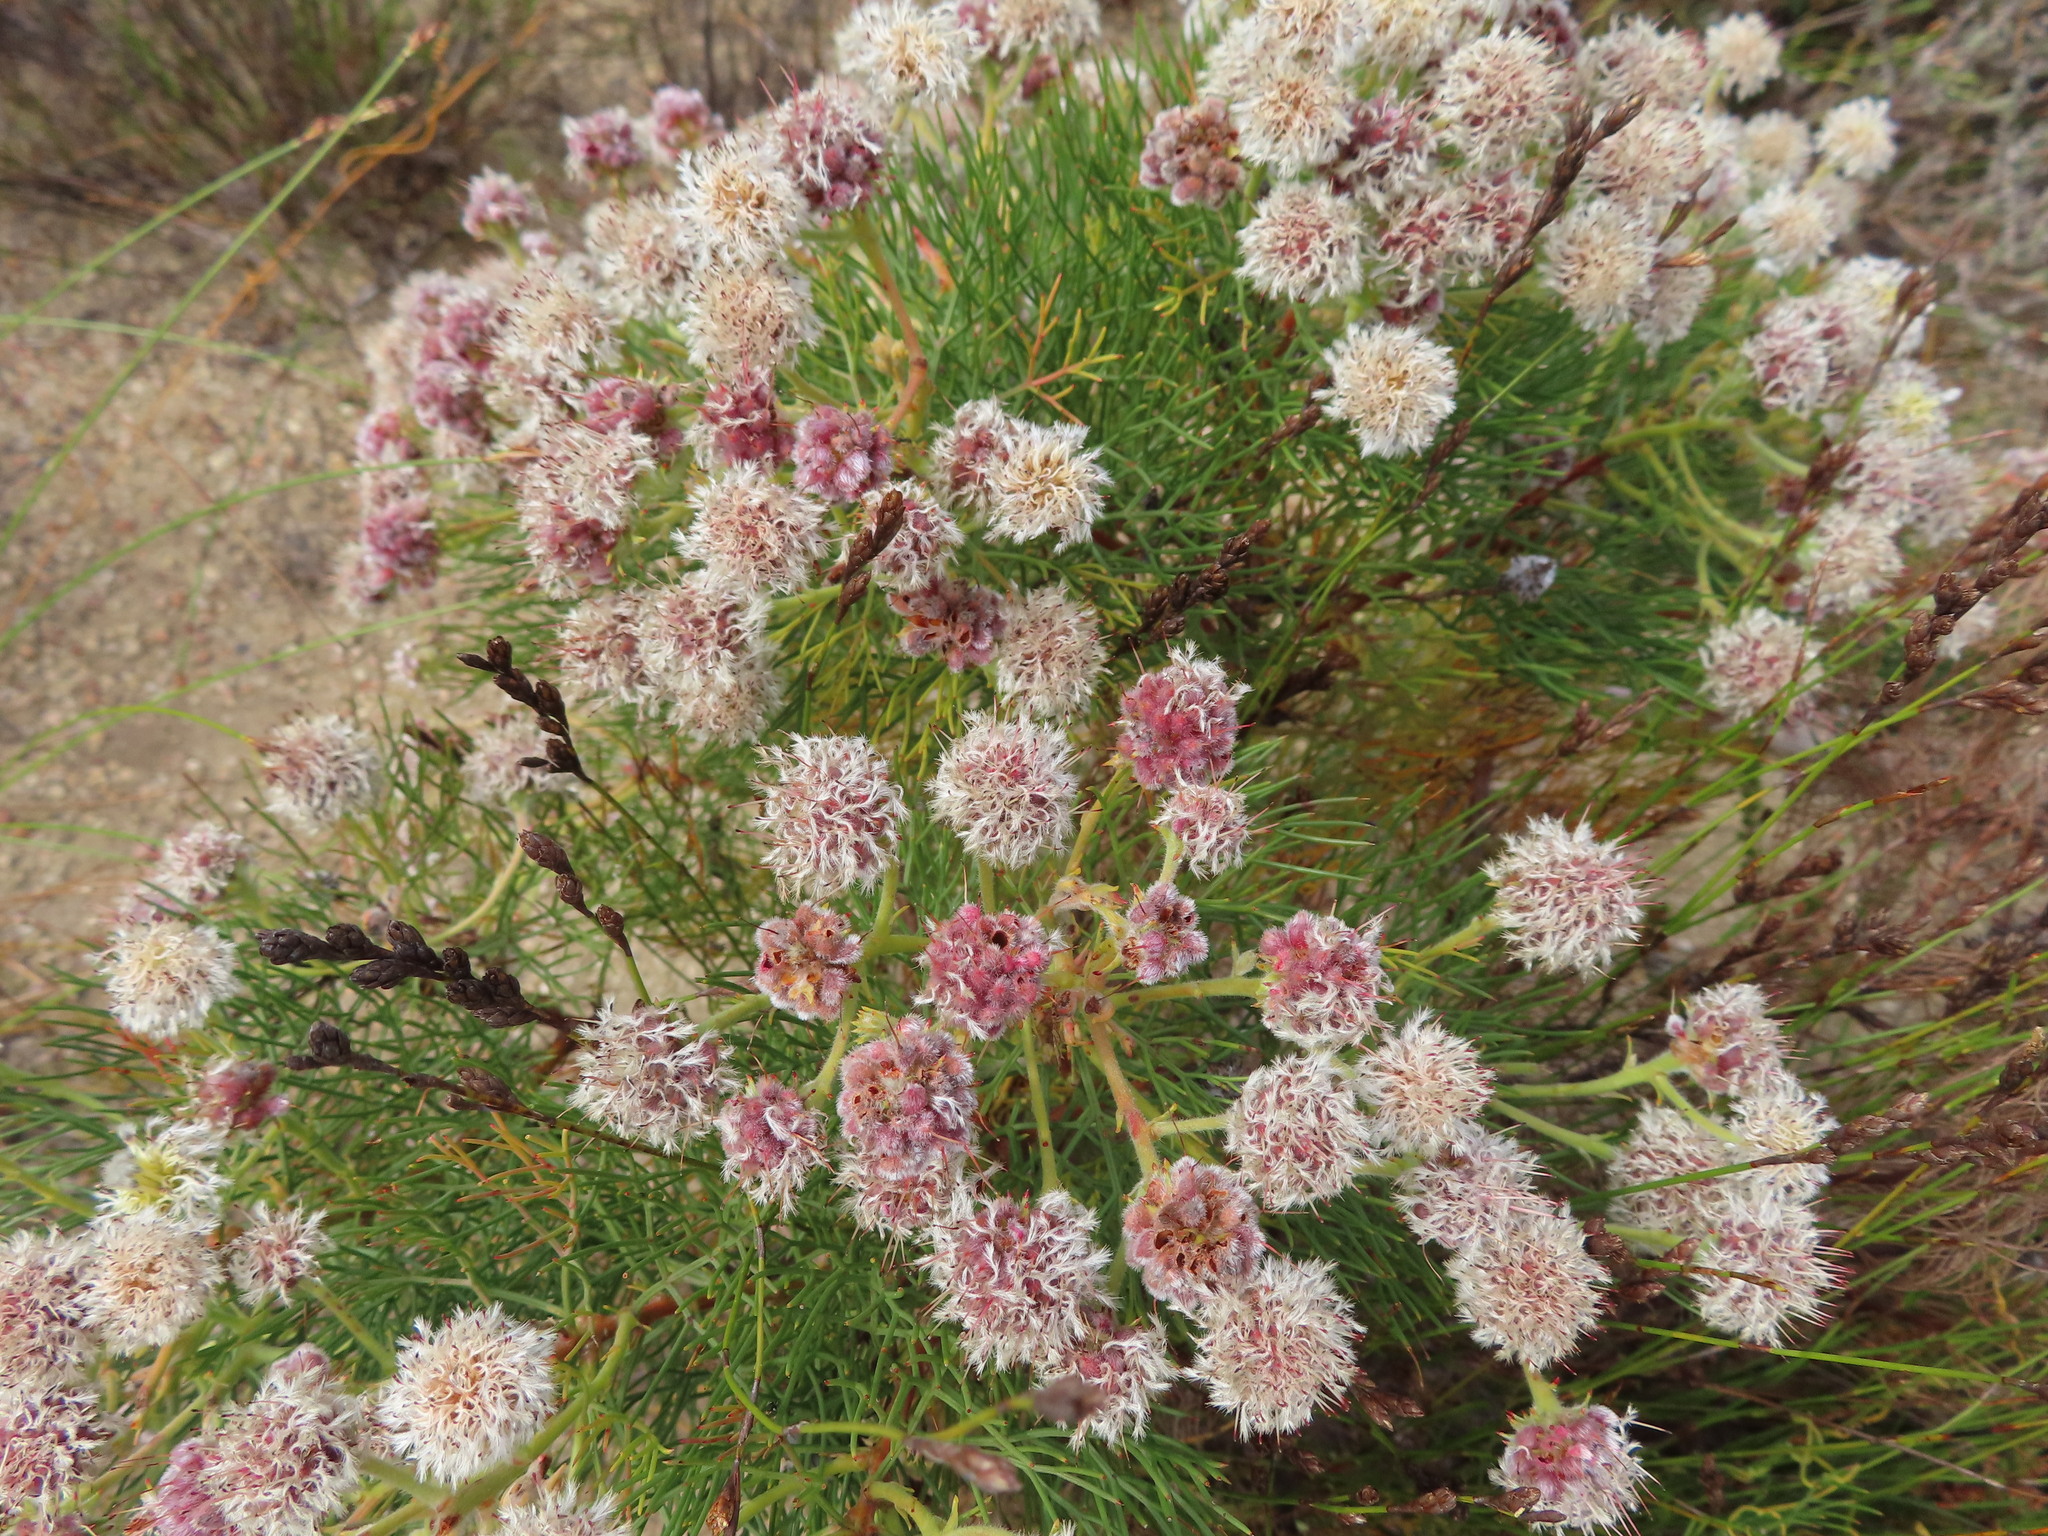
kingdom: Plantae
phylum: Tracheophyta
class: Magnoliopsida
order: Proteales
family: Proteaceae
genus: Serruria
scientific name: Serruria kraussii
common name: Snowball spiderhead
